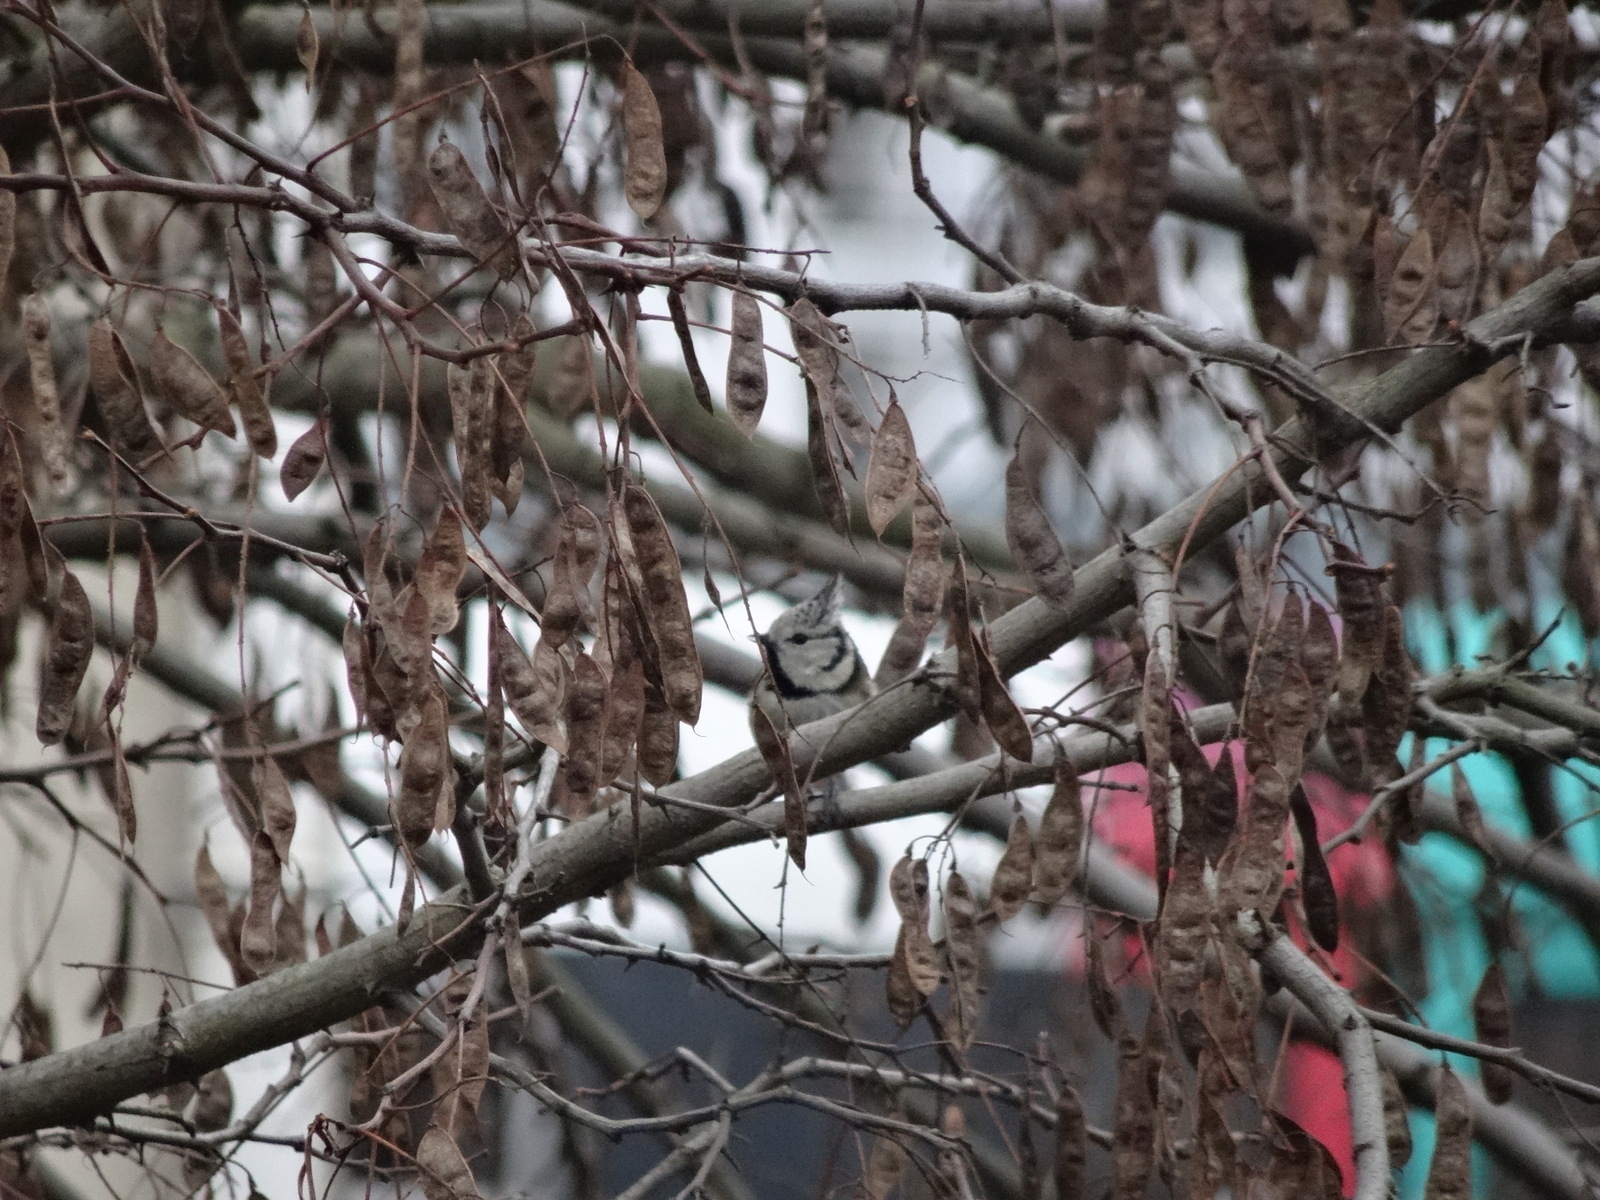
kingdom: Animalia
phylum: Chordata
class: Aves
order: Passeriformes
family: Paridae
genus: Lophophanes
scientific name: Lophophanes cristatus
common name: European crested tit
